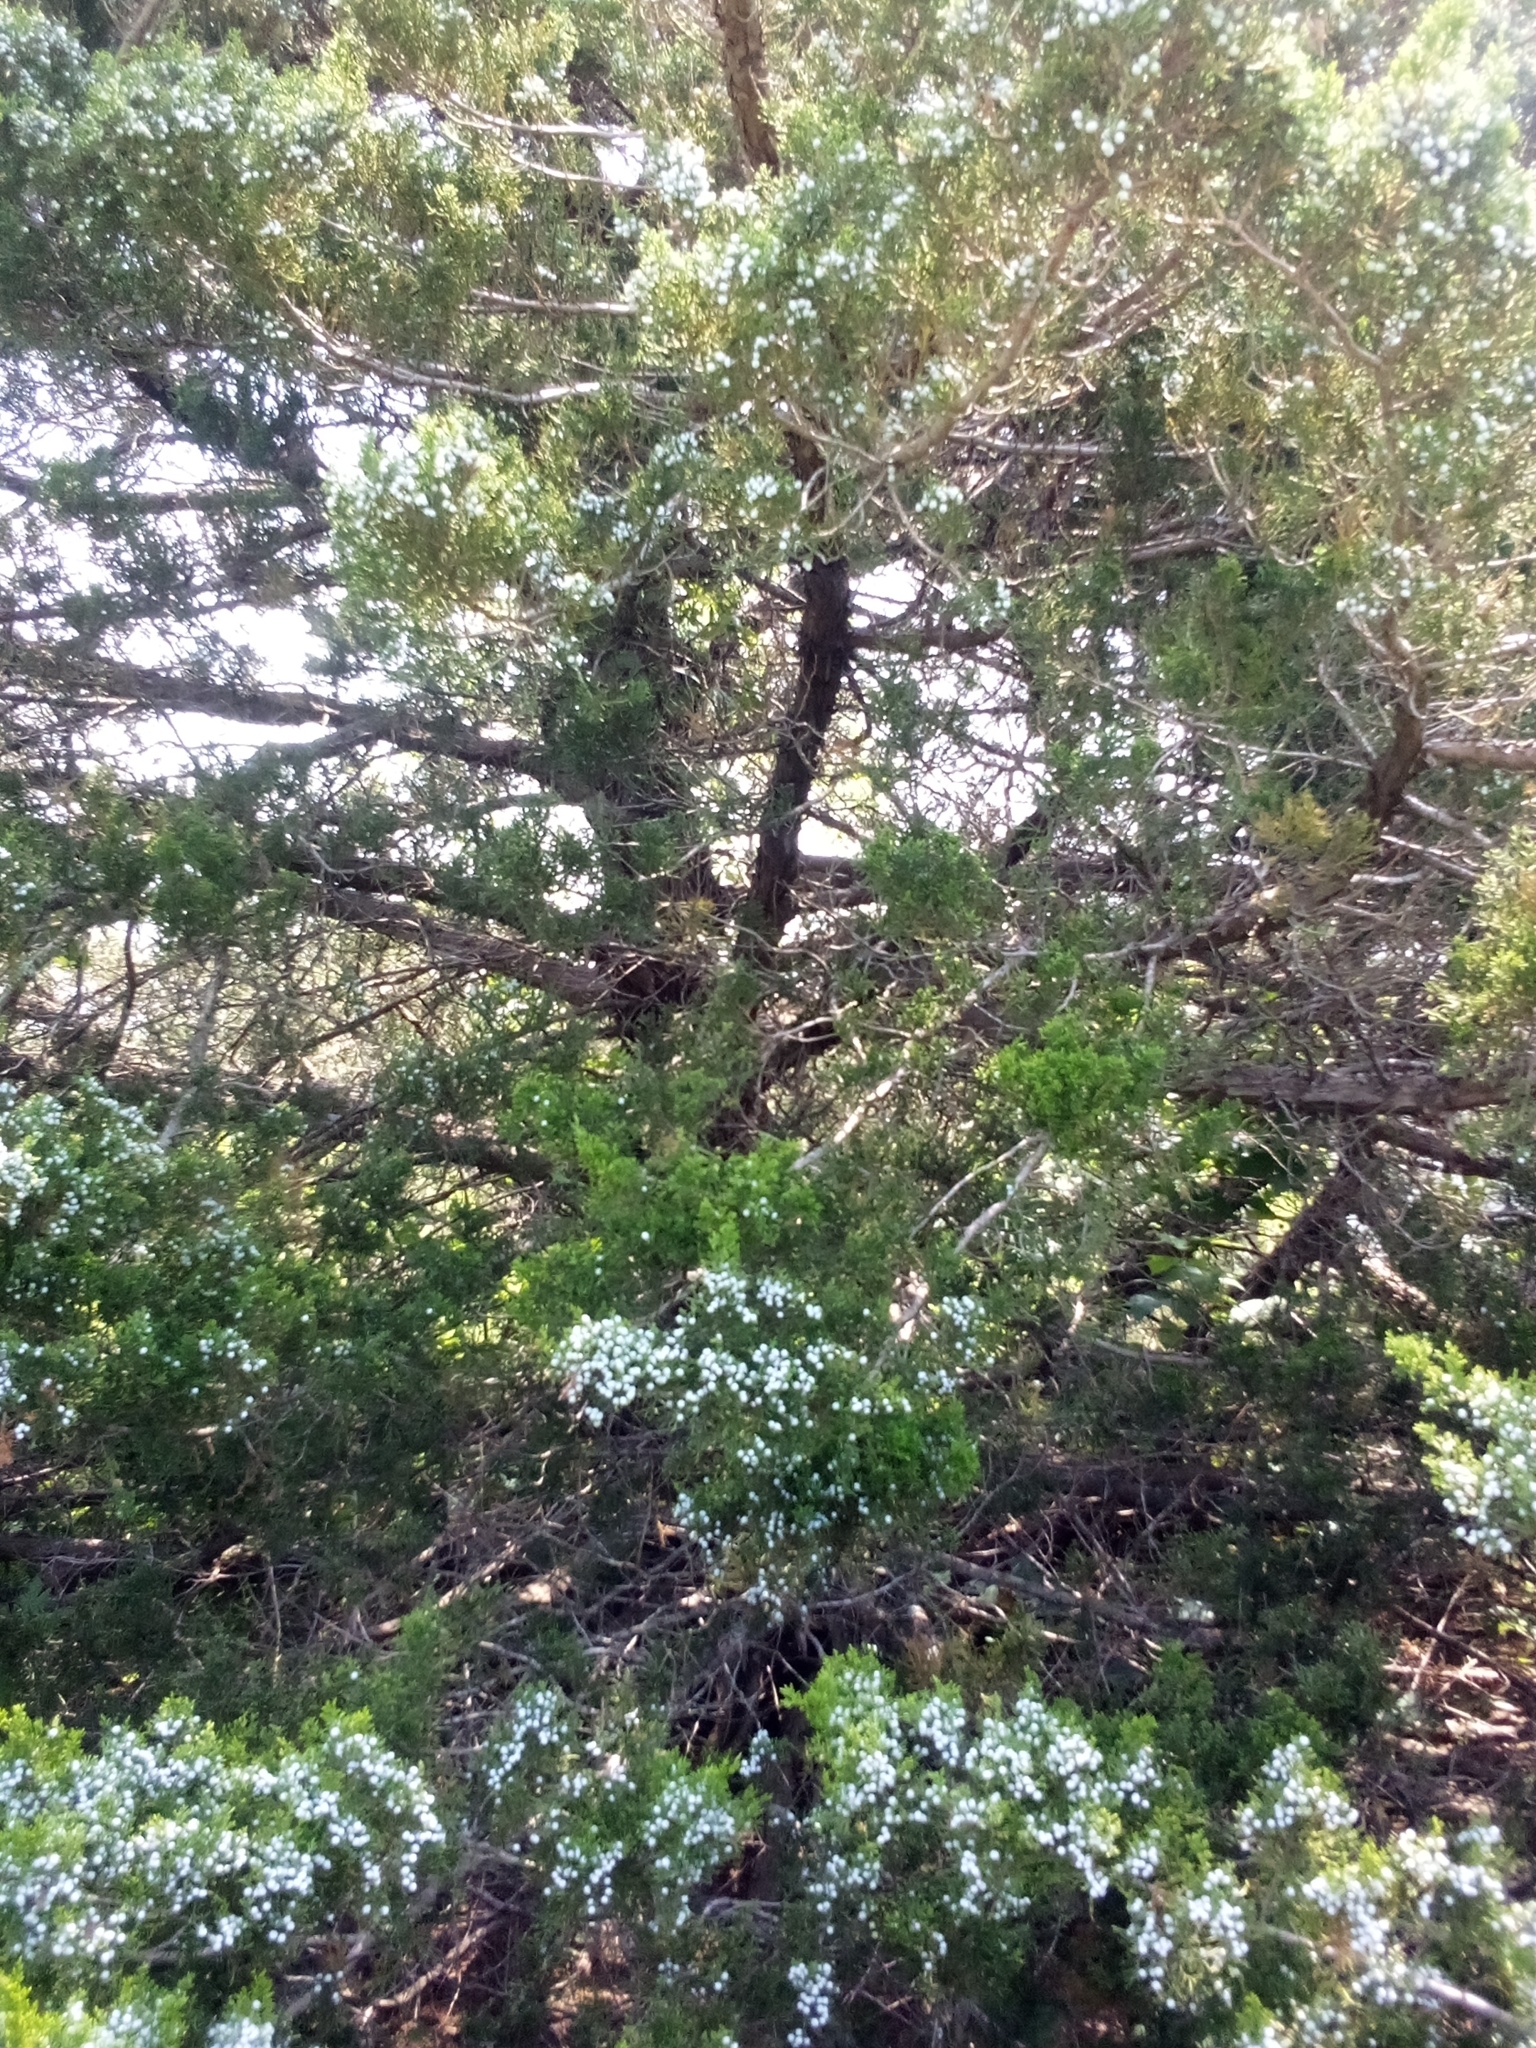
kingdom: Plantae
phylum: Tracheophyta
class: Pinopsida
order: Pinales
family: Cupressaceae
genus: Juniperus
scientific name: Juniperus virginiana
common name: Red juniper
